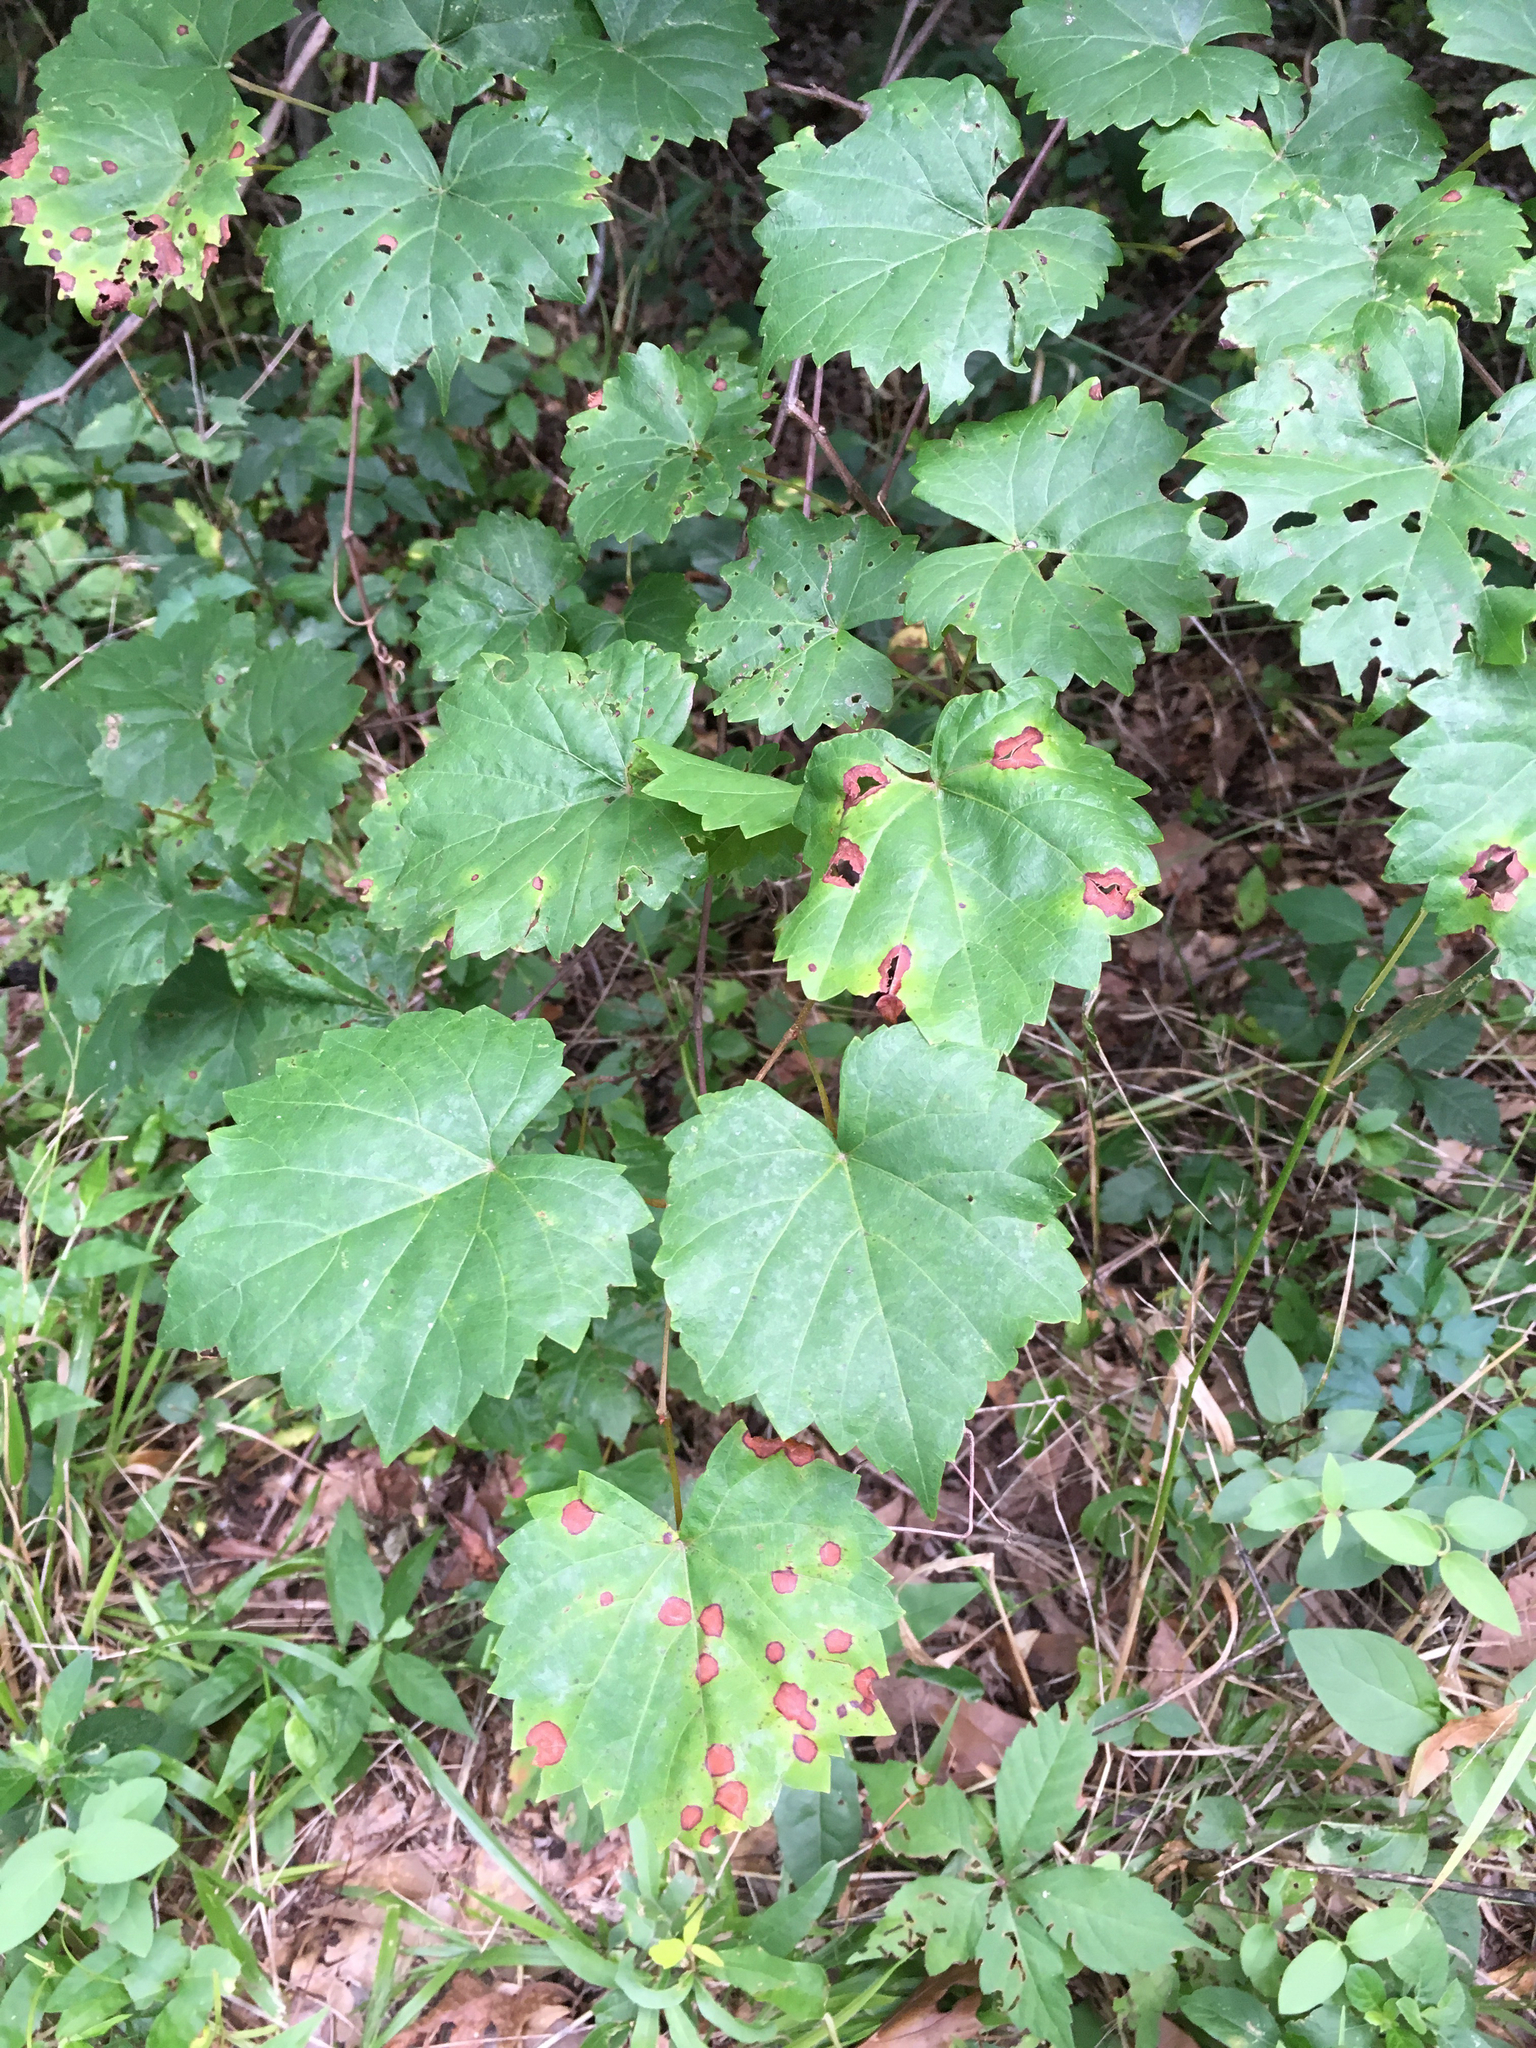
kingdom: Plantae
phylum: Tracheophyta
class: Magnoliopsida
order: Vitales
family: Vitaceae
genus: Vitis
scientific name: Vitis rotundifolia
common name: Muscadine grape
